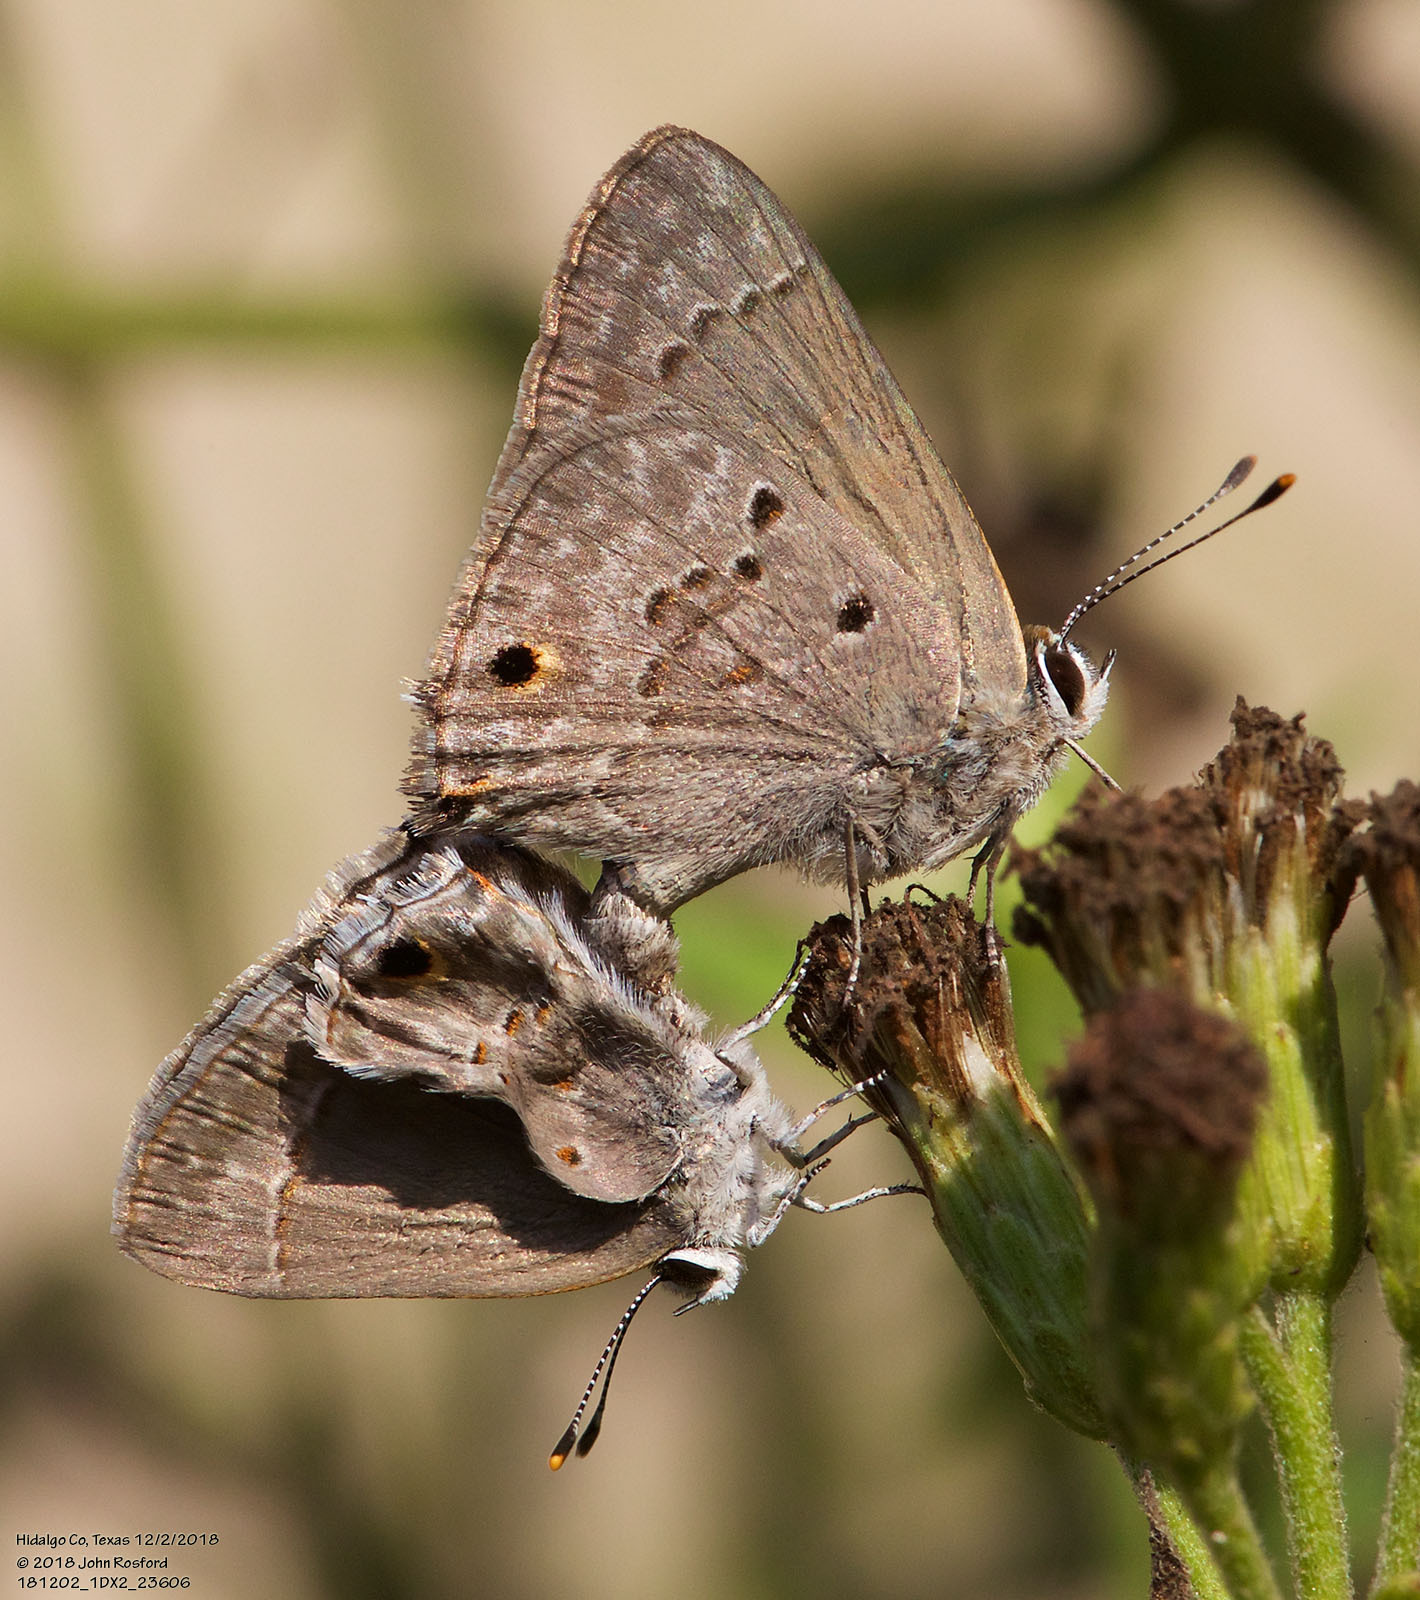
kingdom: Animalia
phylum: Arthropoda
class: Insecta
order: Lepidoptera
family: Lycaenidae
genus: Callicista
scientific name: Callicista columella
